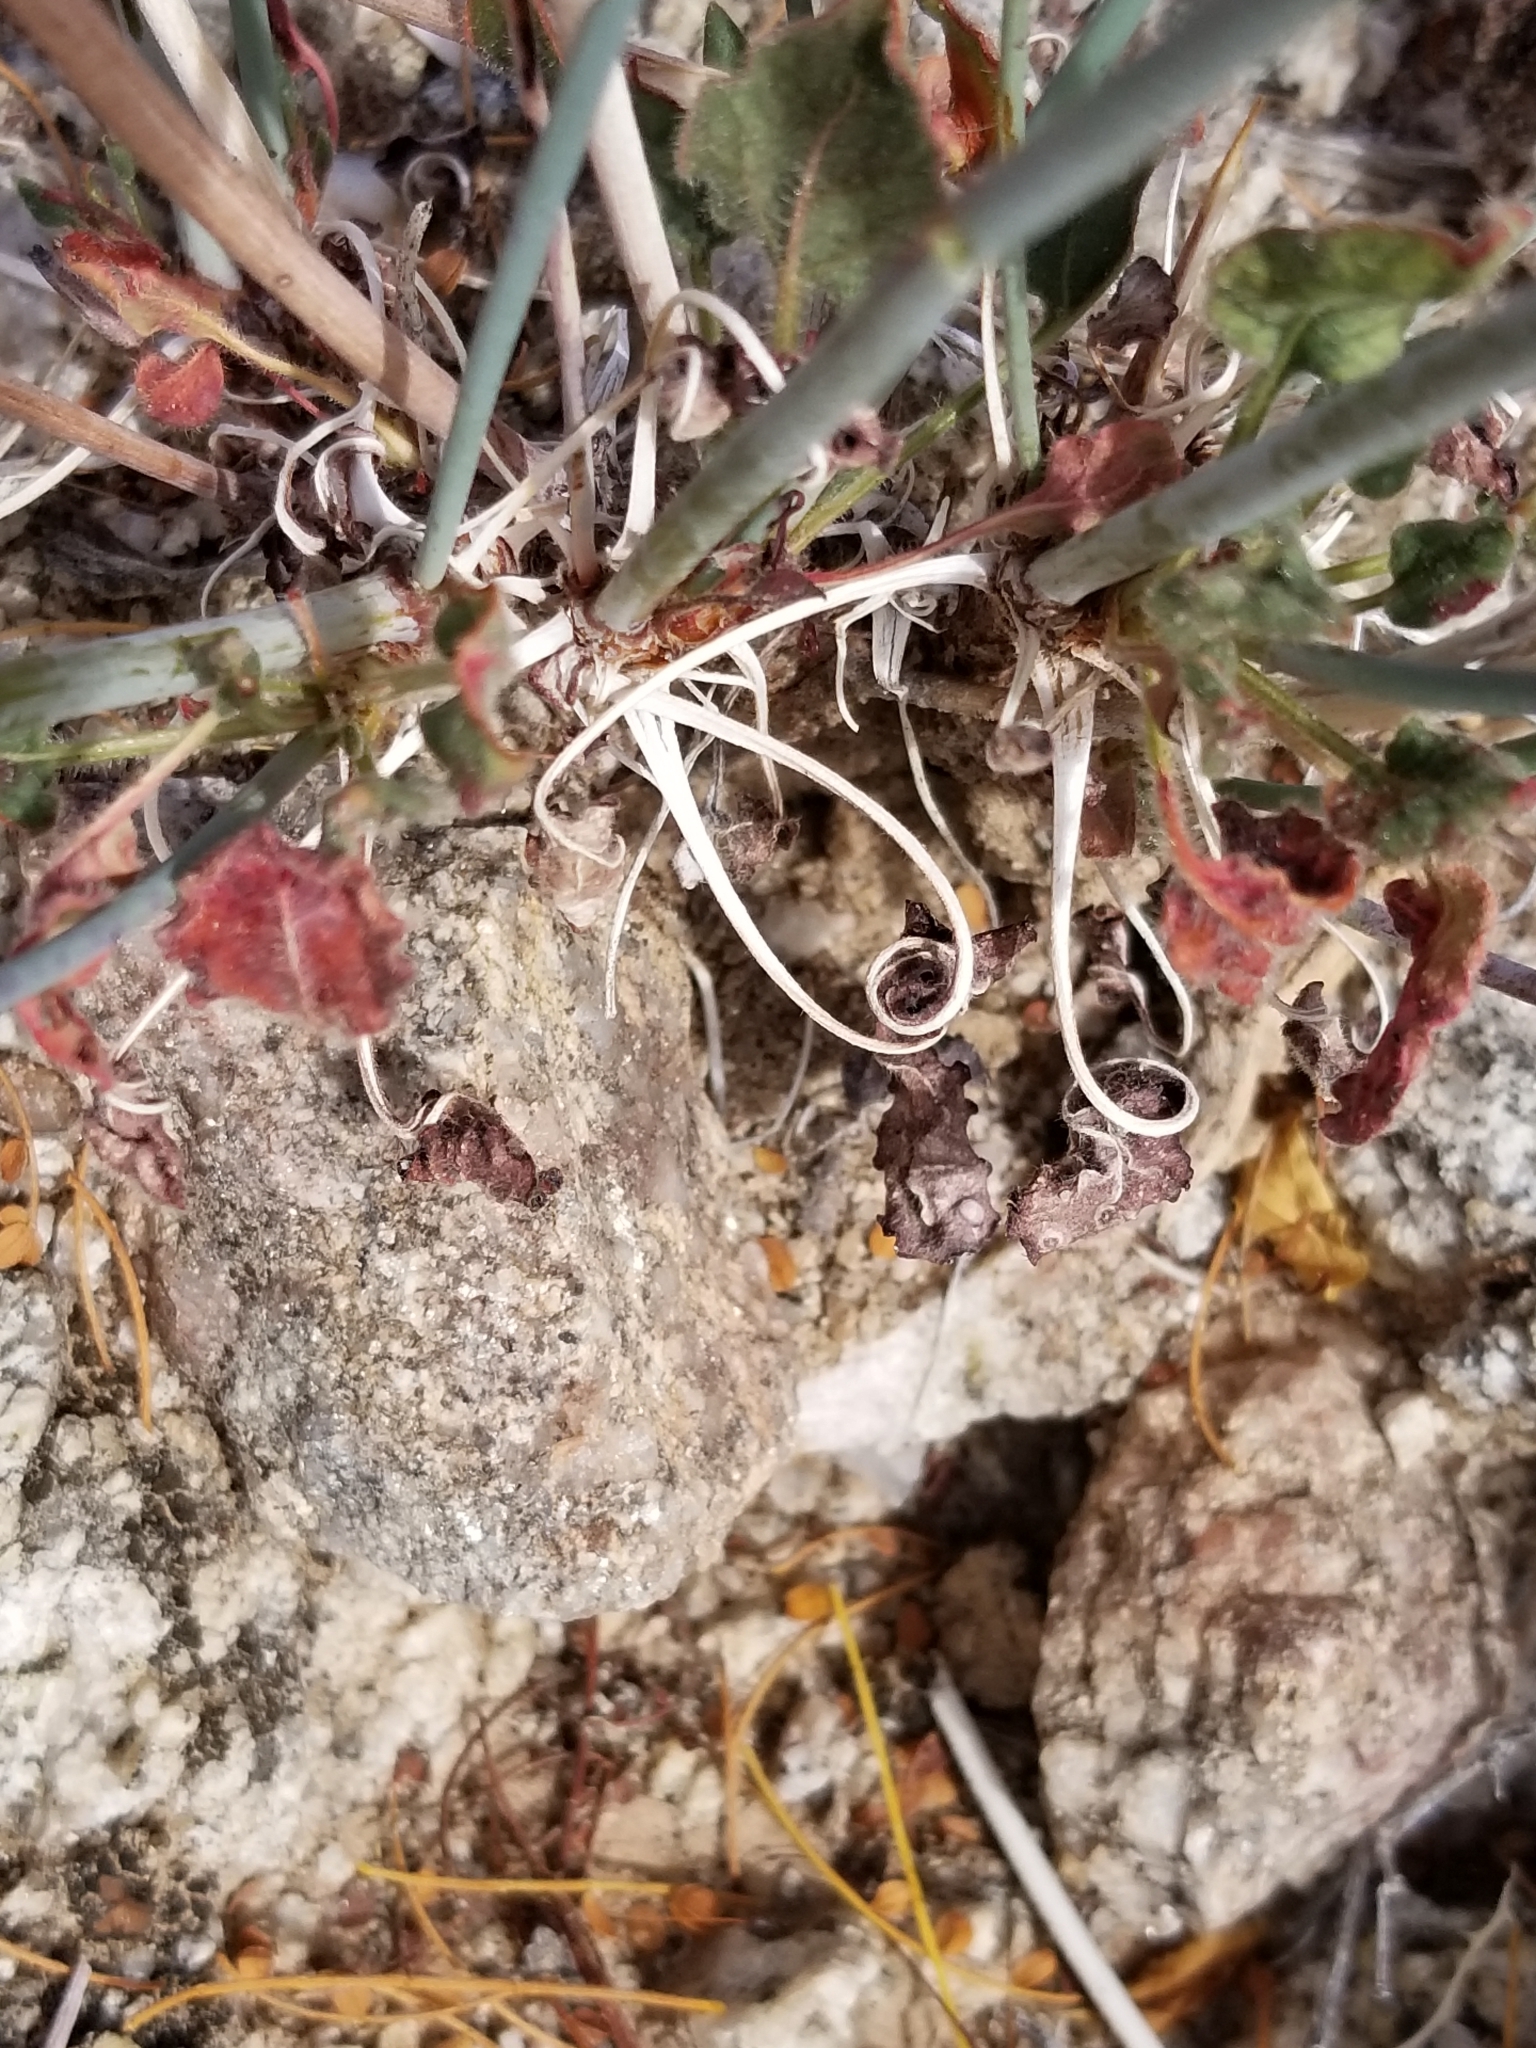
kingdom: Plantae
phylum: Tracheophyta
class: Magnoliopsida
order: Caryophyllales
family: Polygonaceae
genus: Eriogonum
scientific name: Eriogonum inflatum
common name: Desert trumpet
